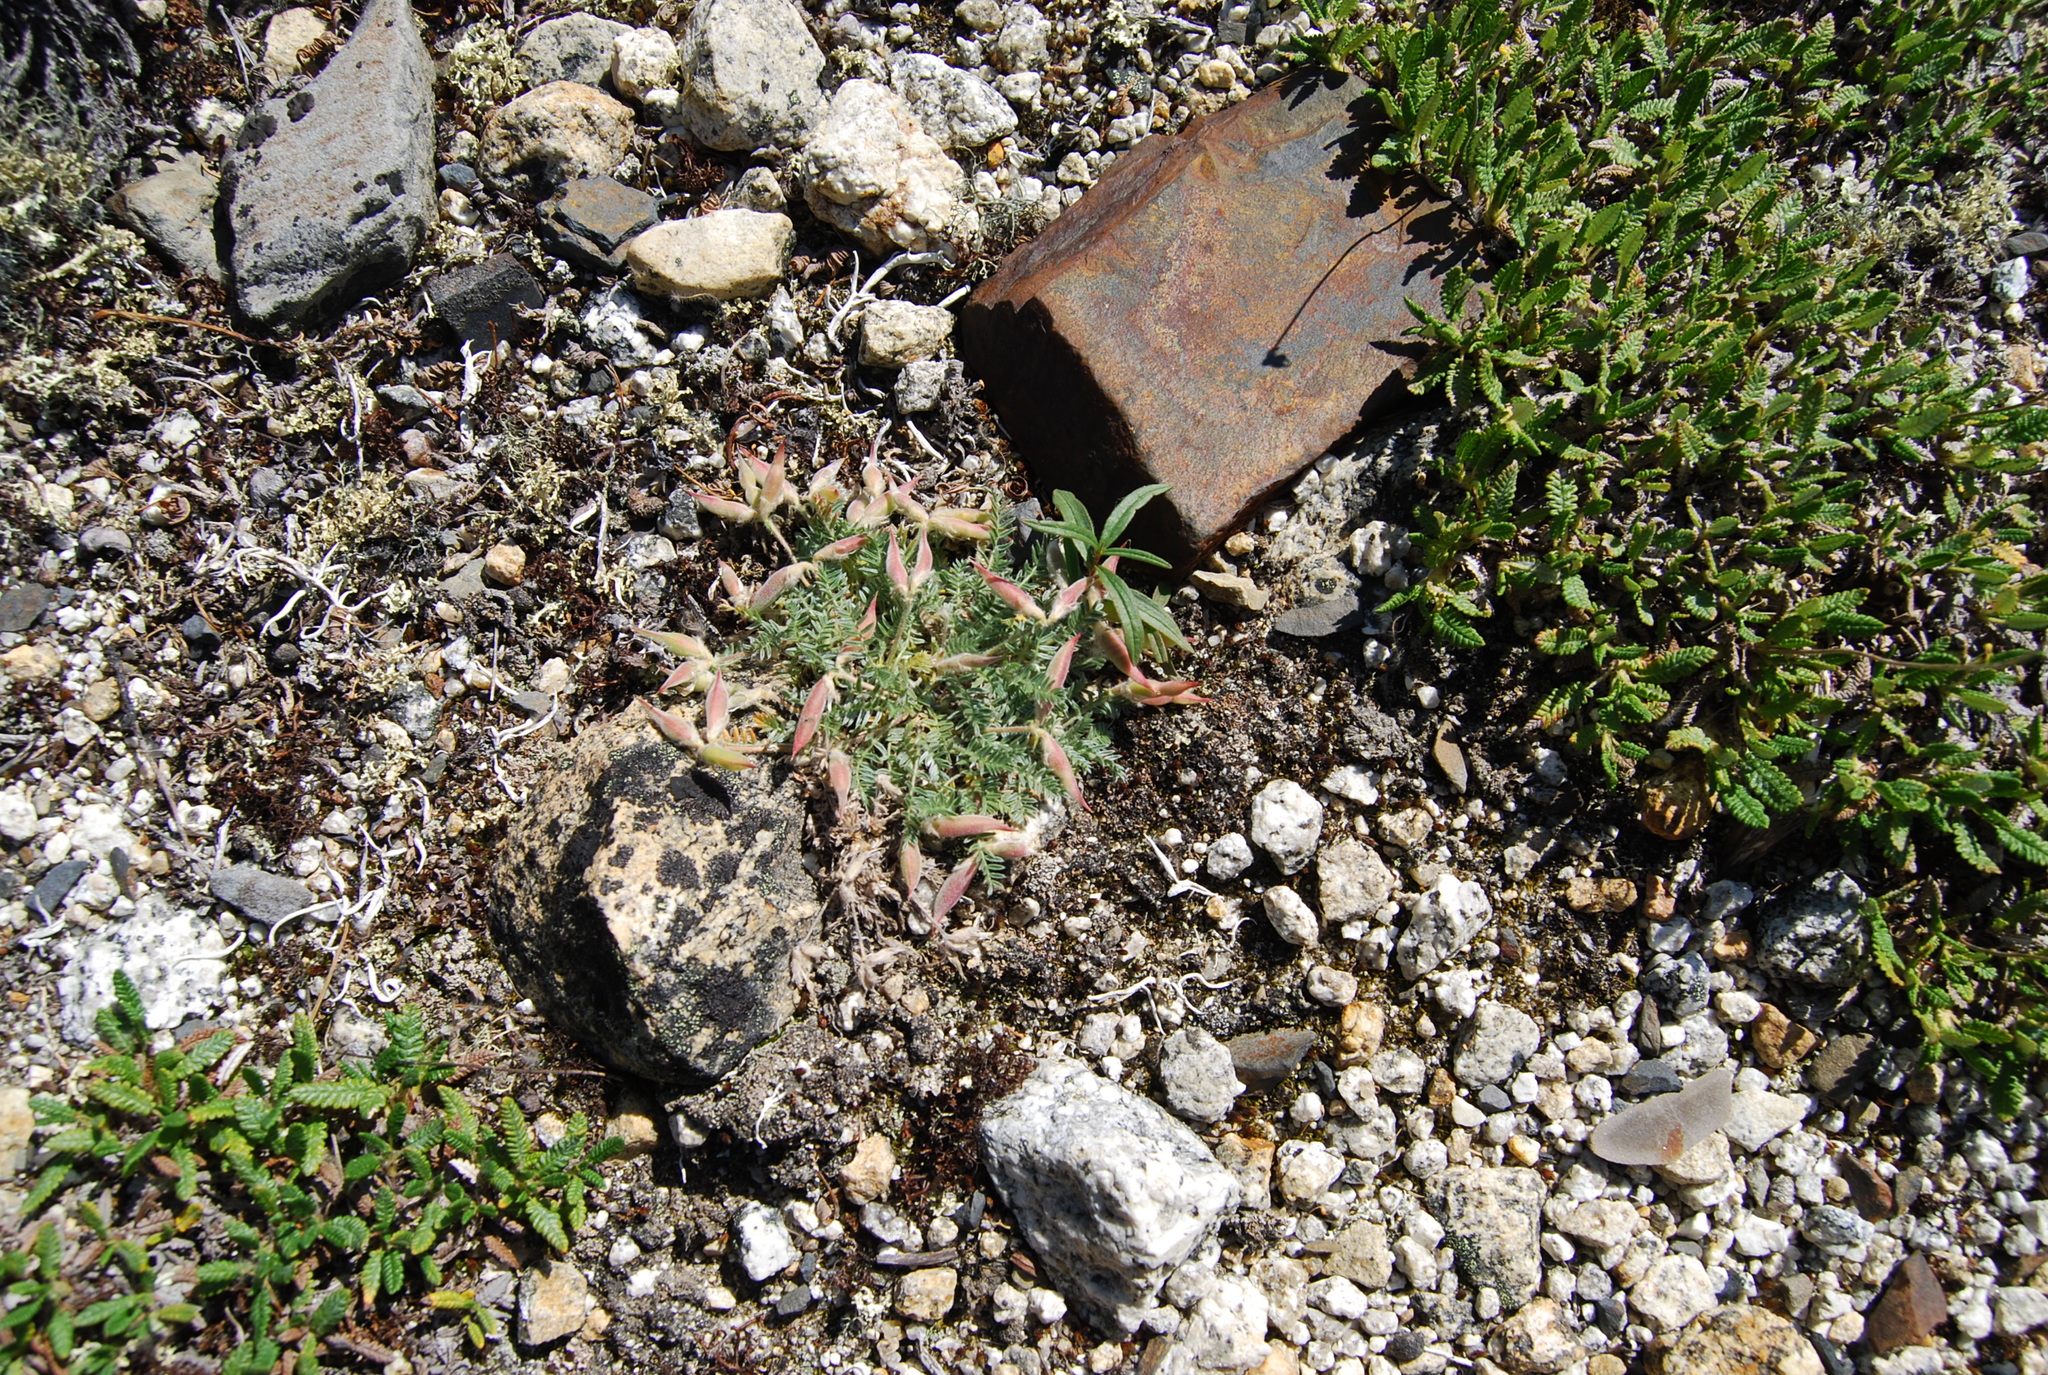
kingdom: Plantae
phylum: Tracheophyta
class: Magnoliopsida
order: Fabales
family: Fabaceae
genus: Oxytropis
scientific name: Oxytropis susumanica
